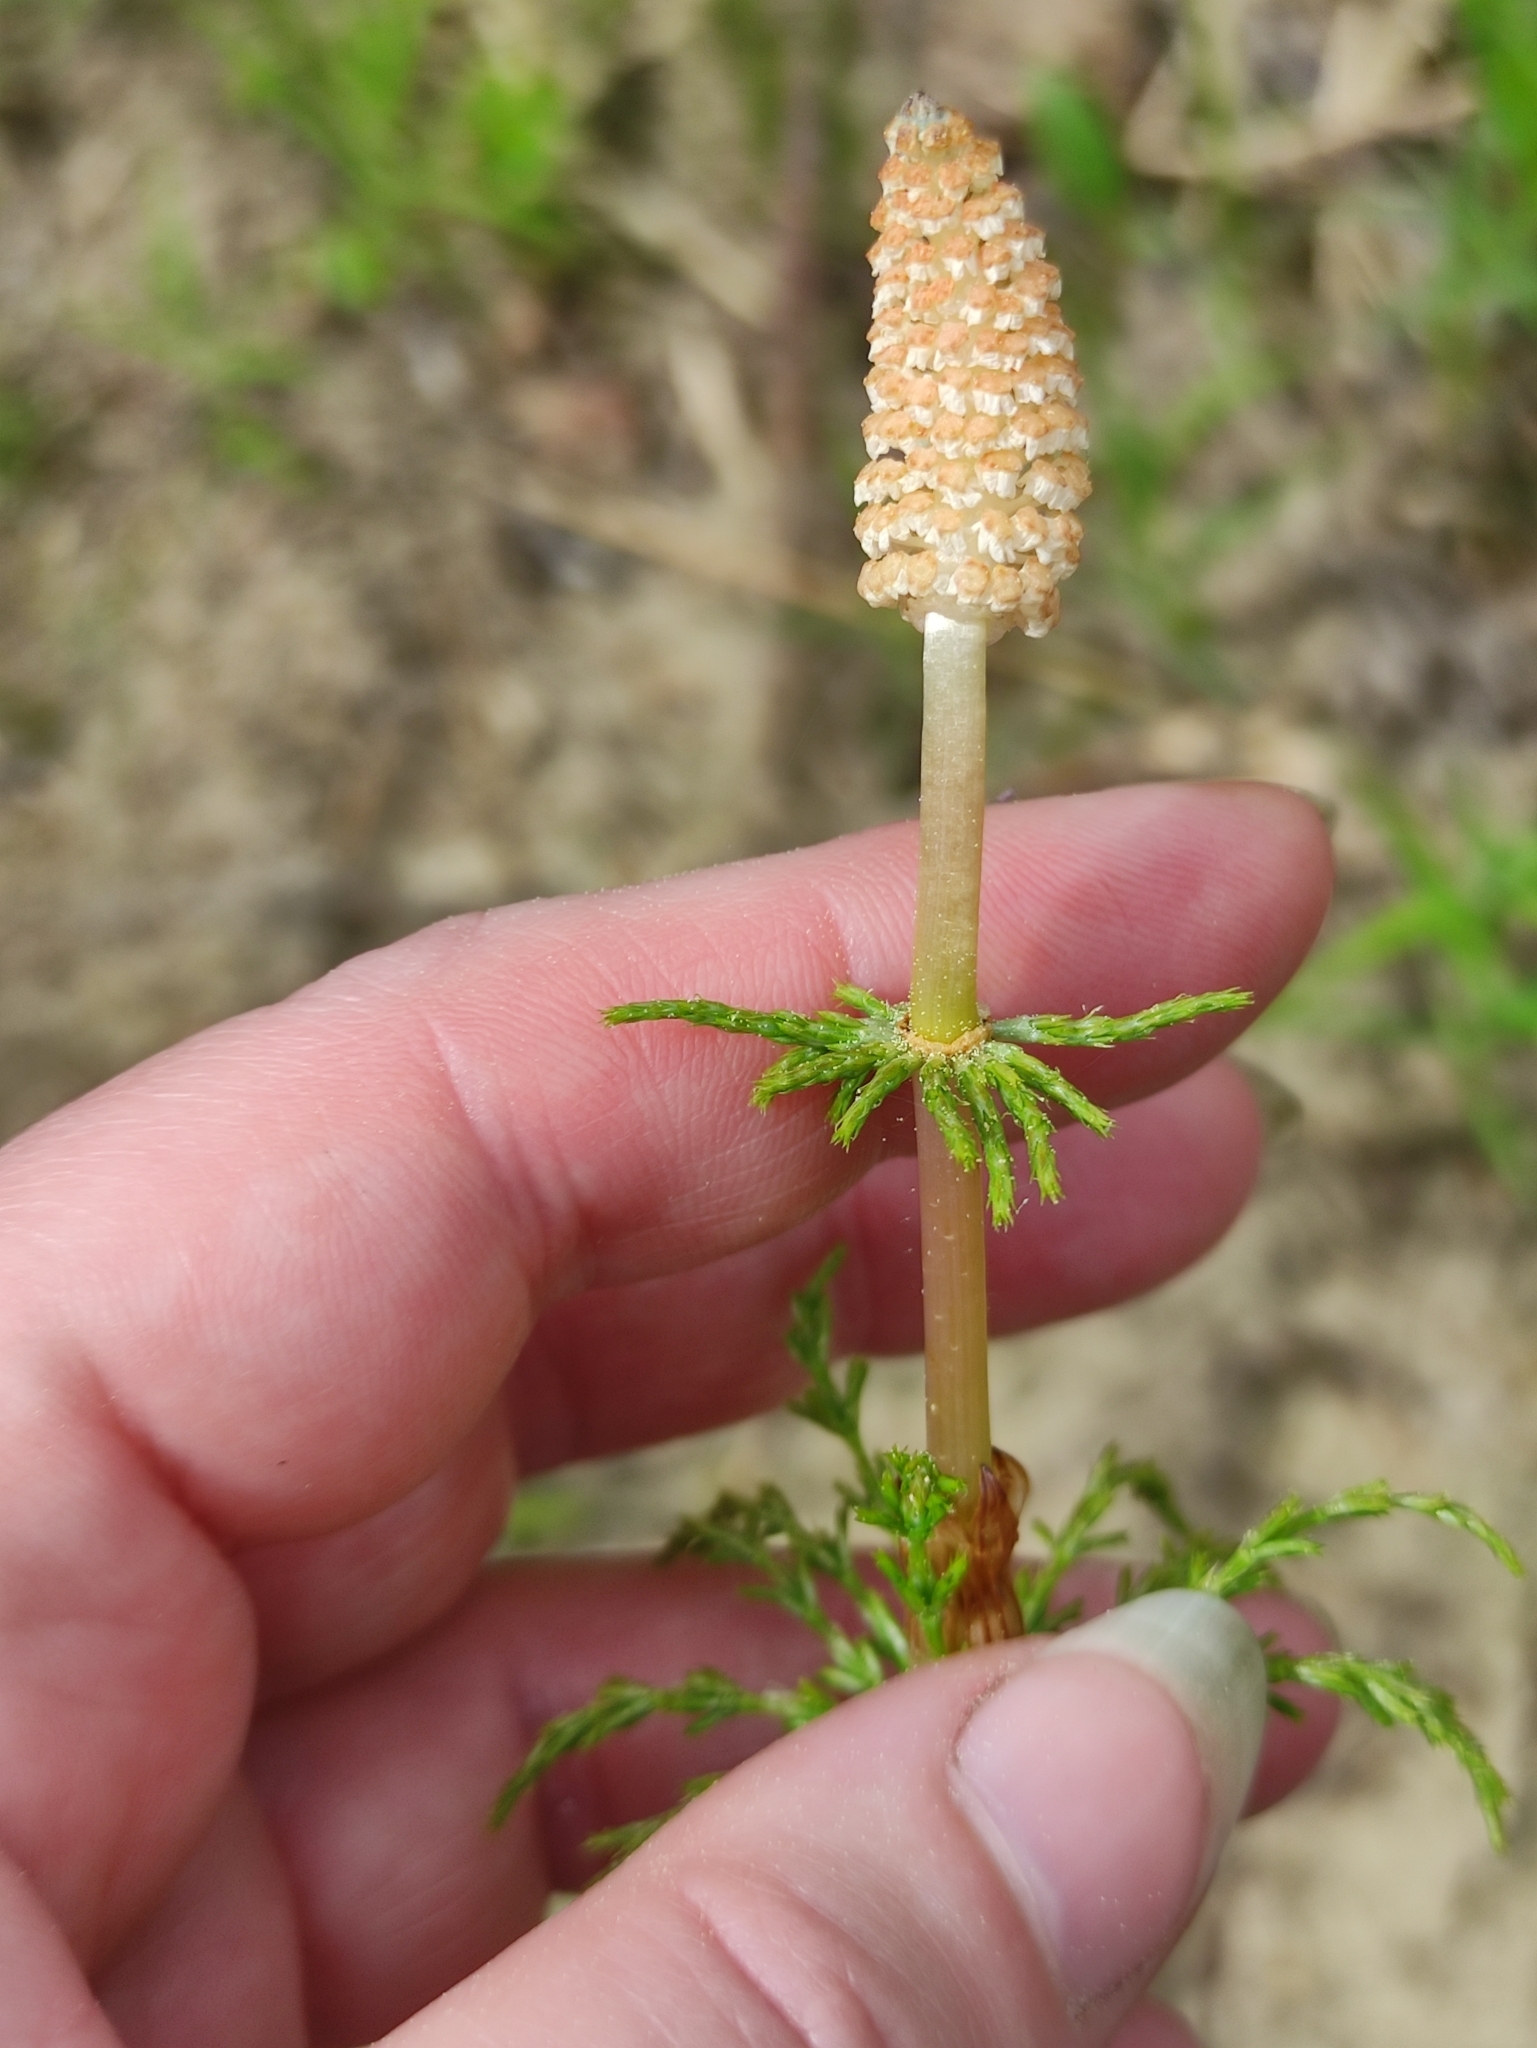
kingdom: Plantae
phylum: Tracheophyta
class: Polypodiopsida
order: Equisetales
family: Equisetaceae
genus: Equisetum
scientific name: Equisetum sylvaticum
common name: Wood horsetail
